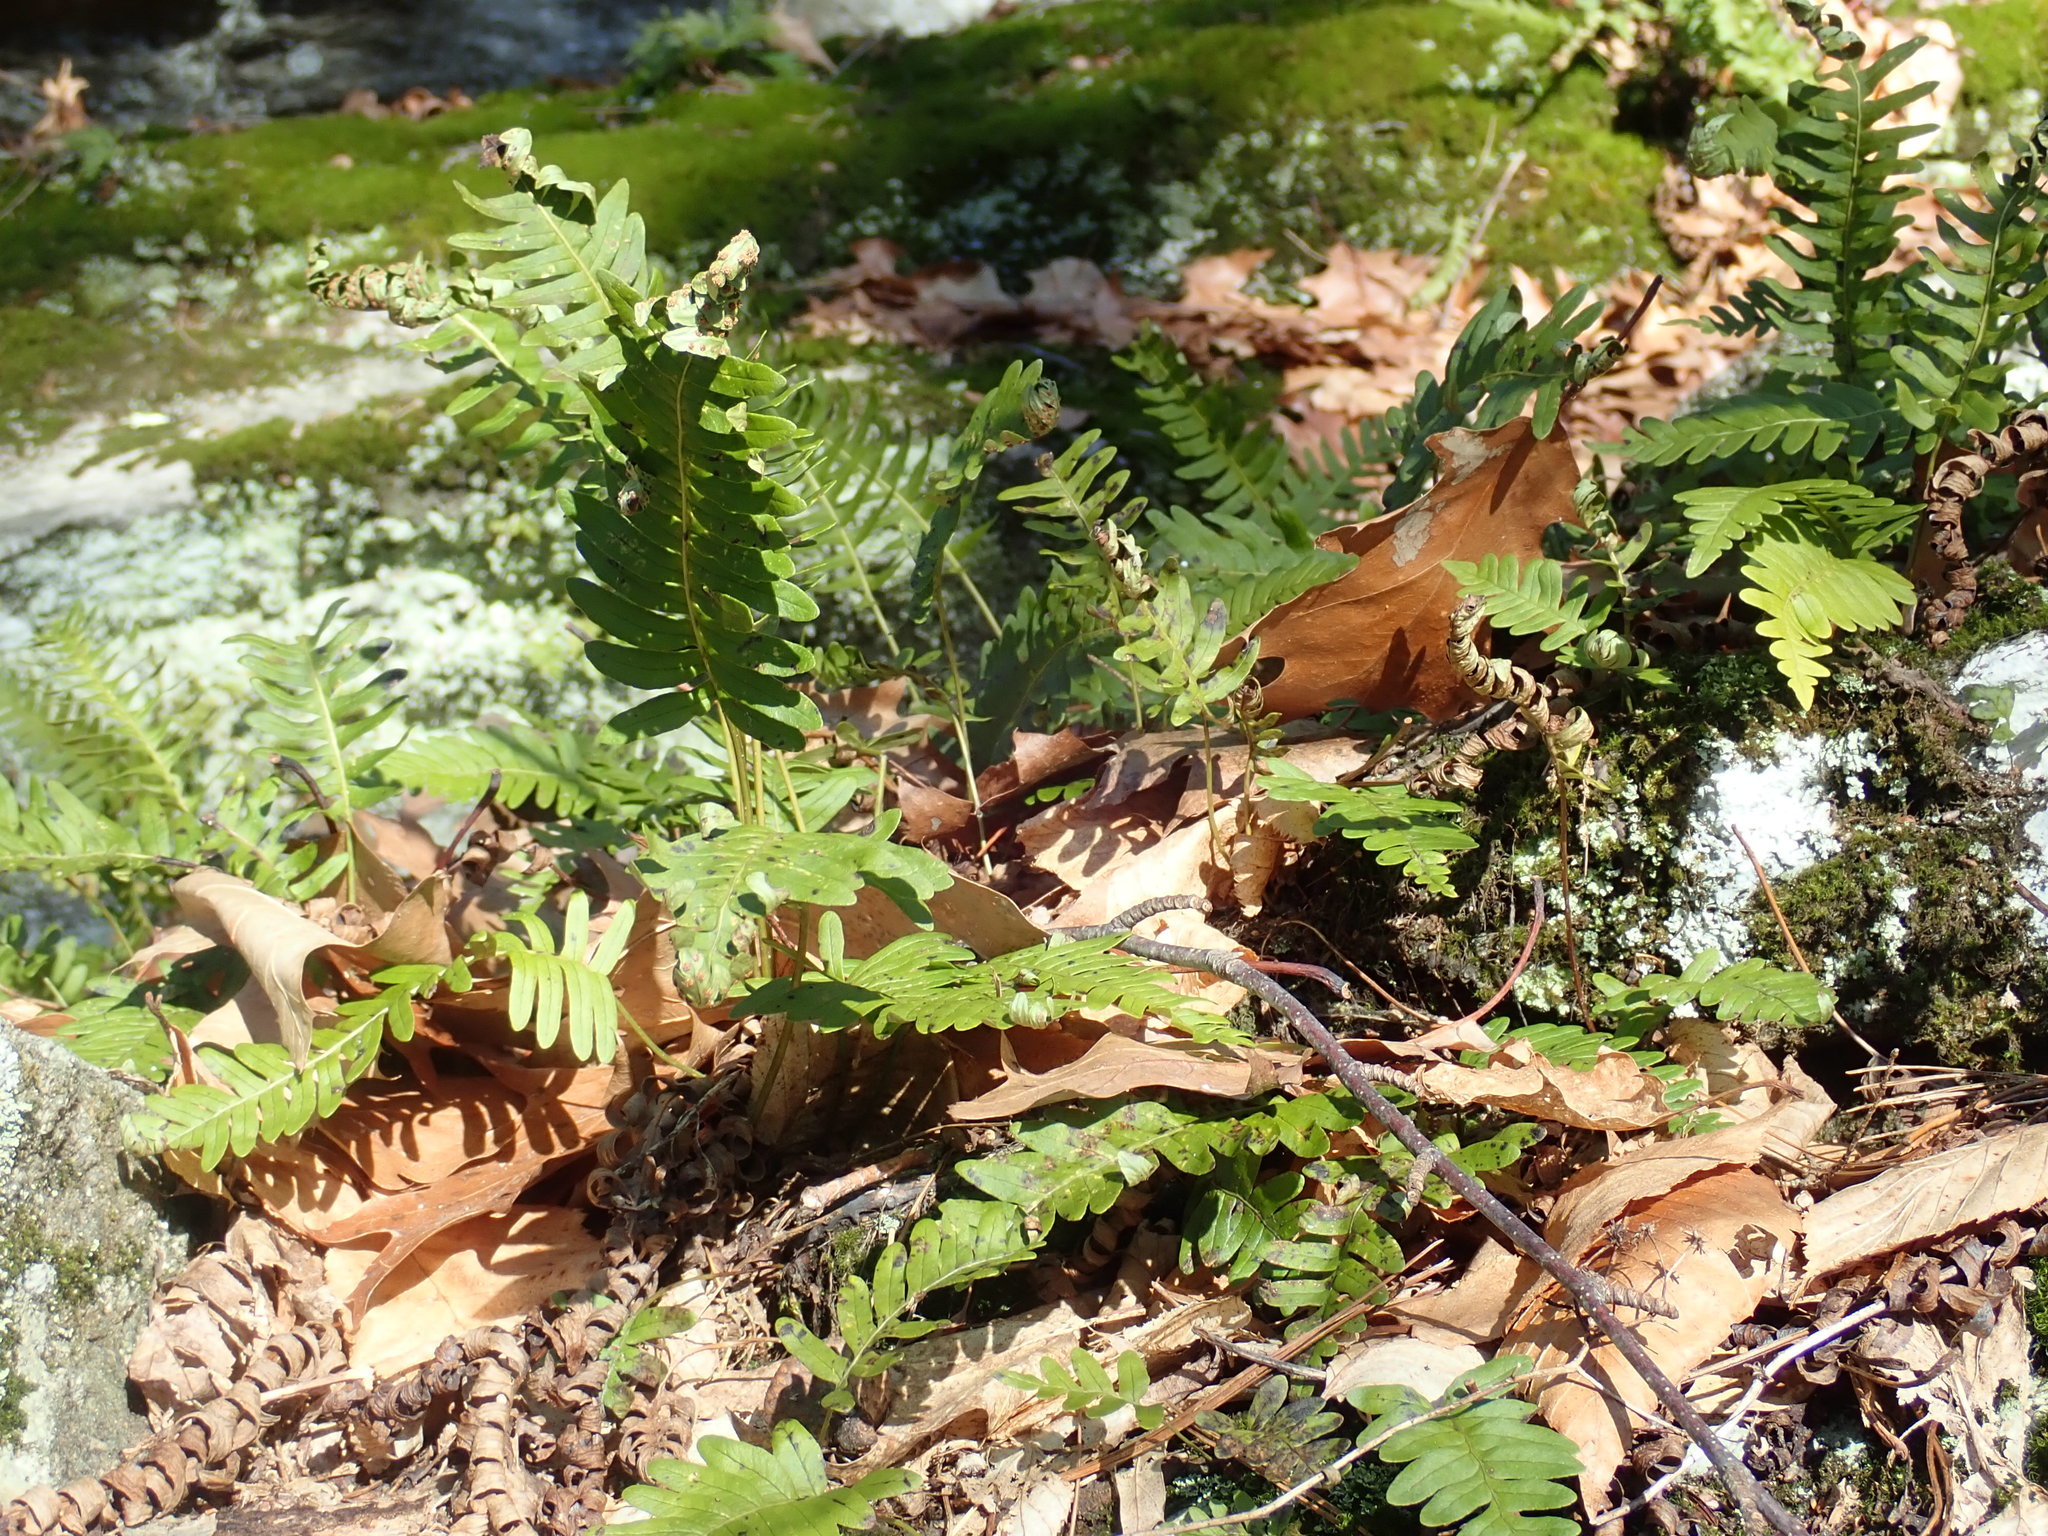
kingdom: Plantae
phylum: Tracheophyta
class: Polypodiopsida
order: Polypodiales
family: Polypodiaceae
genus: Polypodium
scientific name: Polypodium
